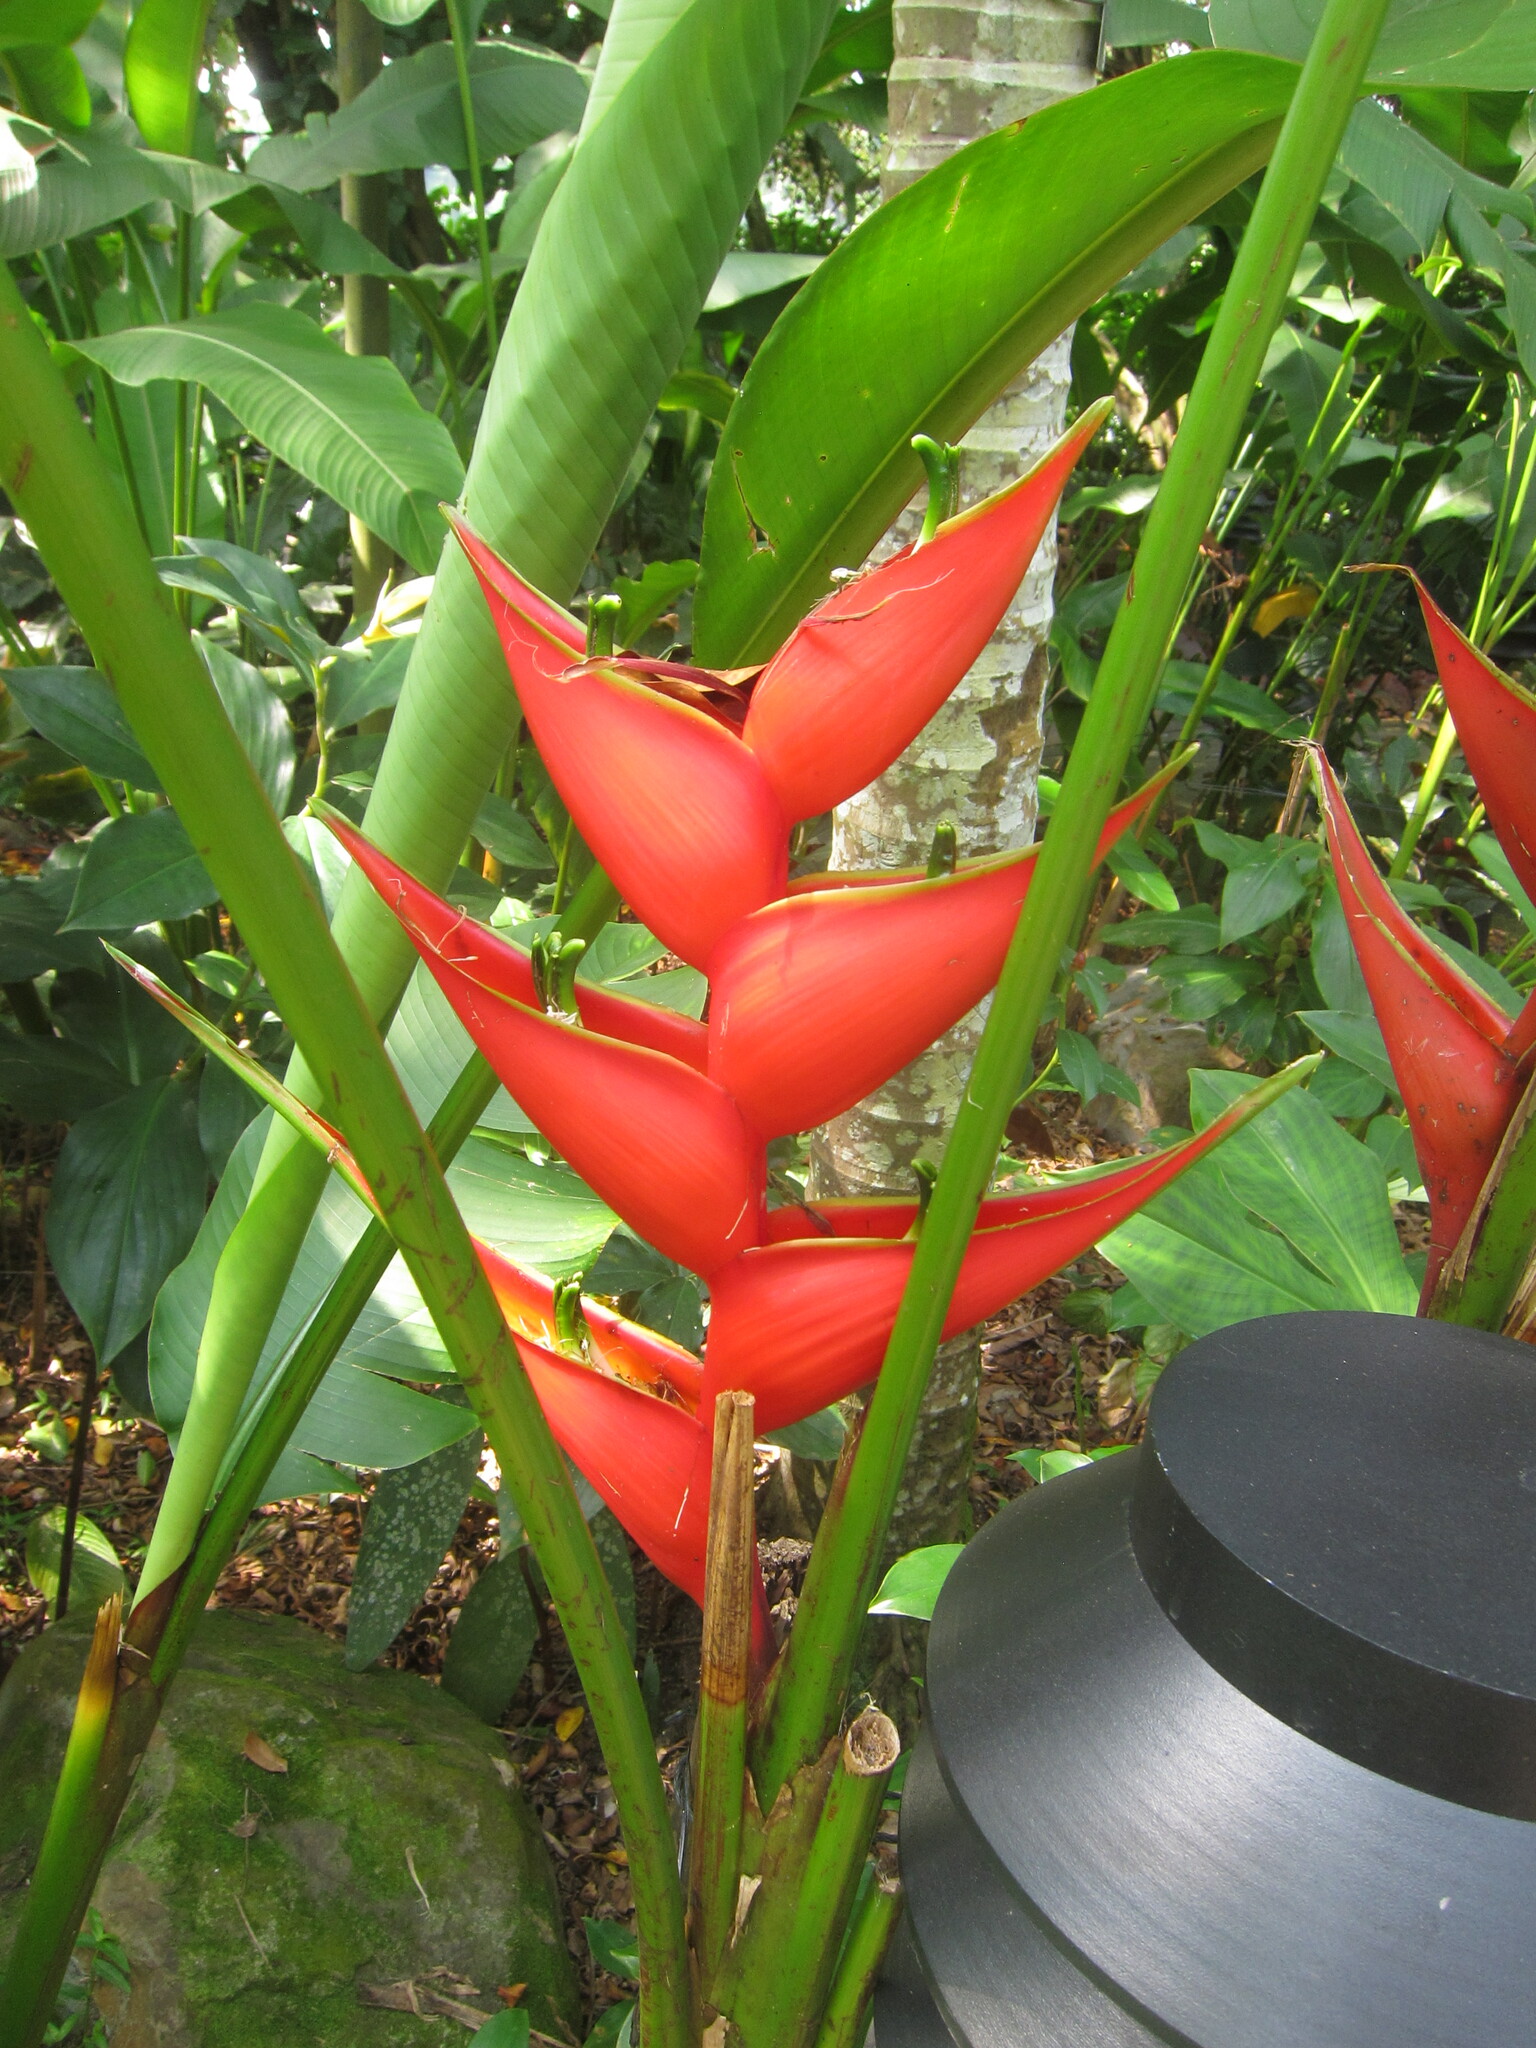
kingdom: Plantae
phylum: Tracheophyta
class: Liliopsida
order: Zingiberales
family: Heliconiaceae
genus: Heliconia
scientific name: Heliconia bihai
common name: Macaw flower
